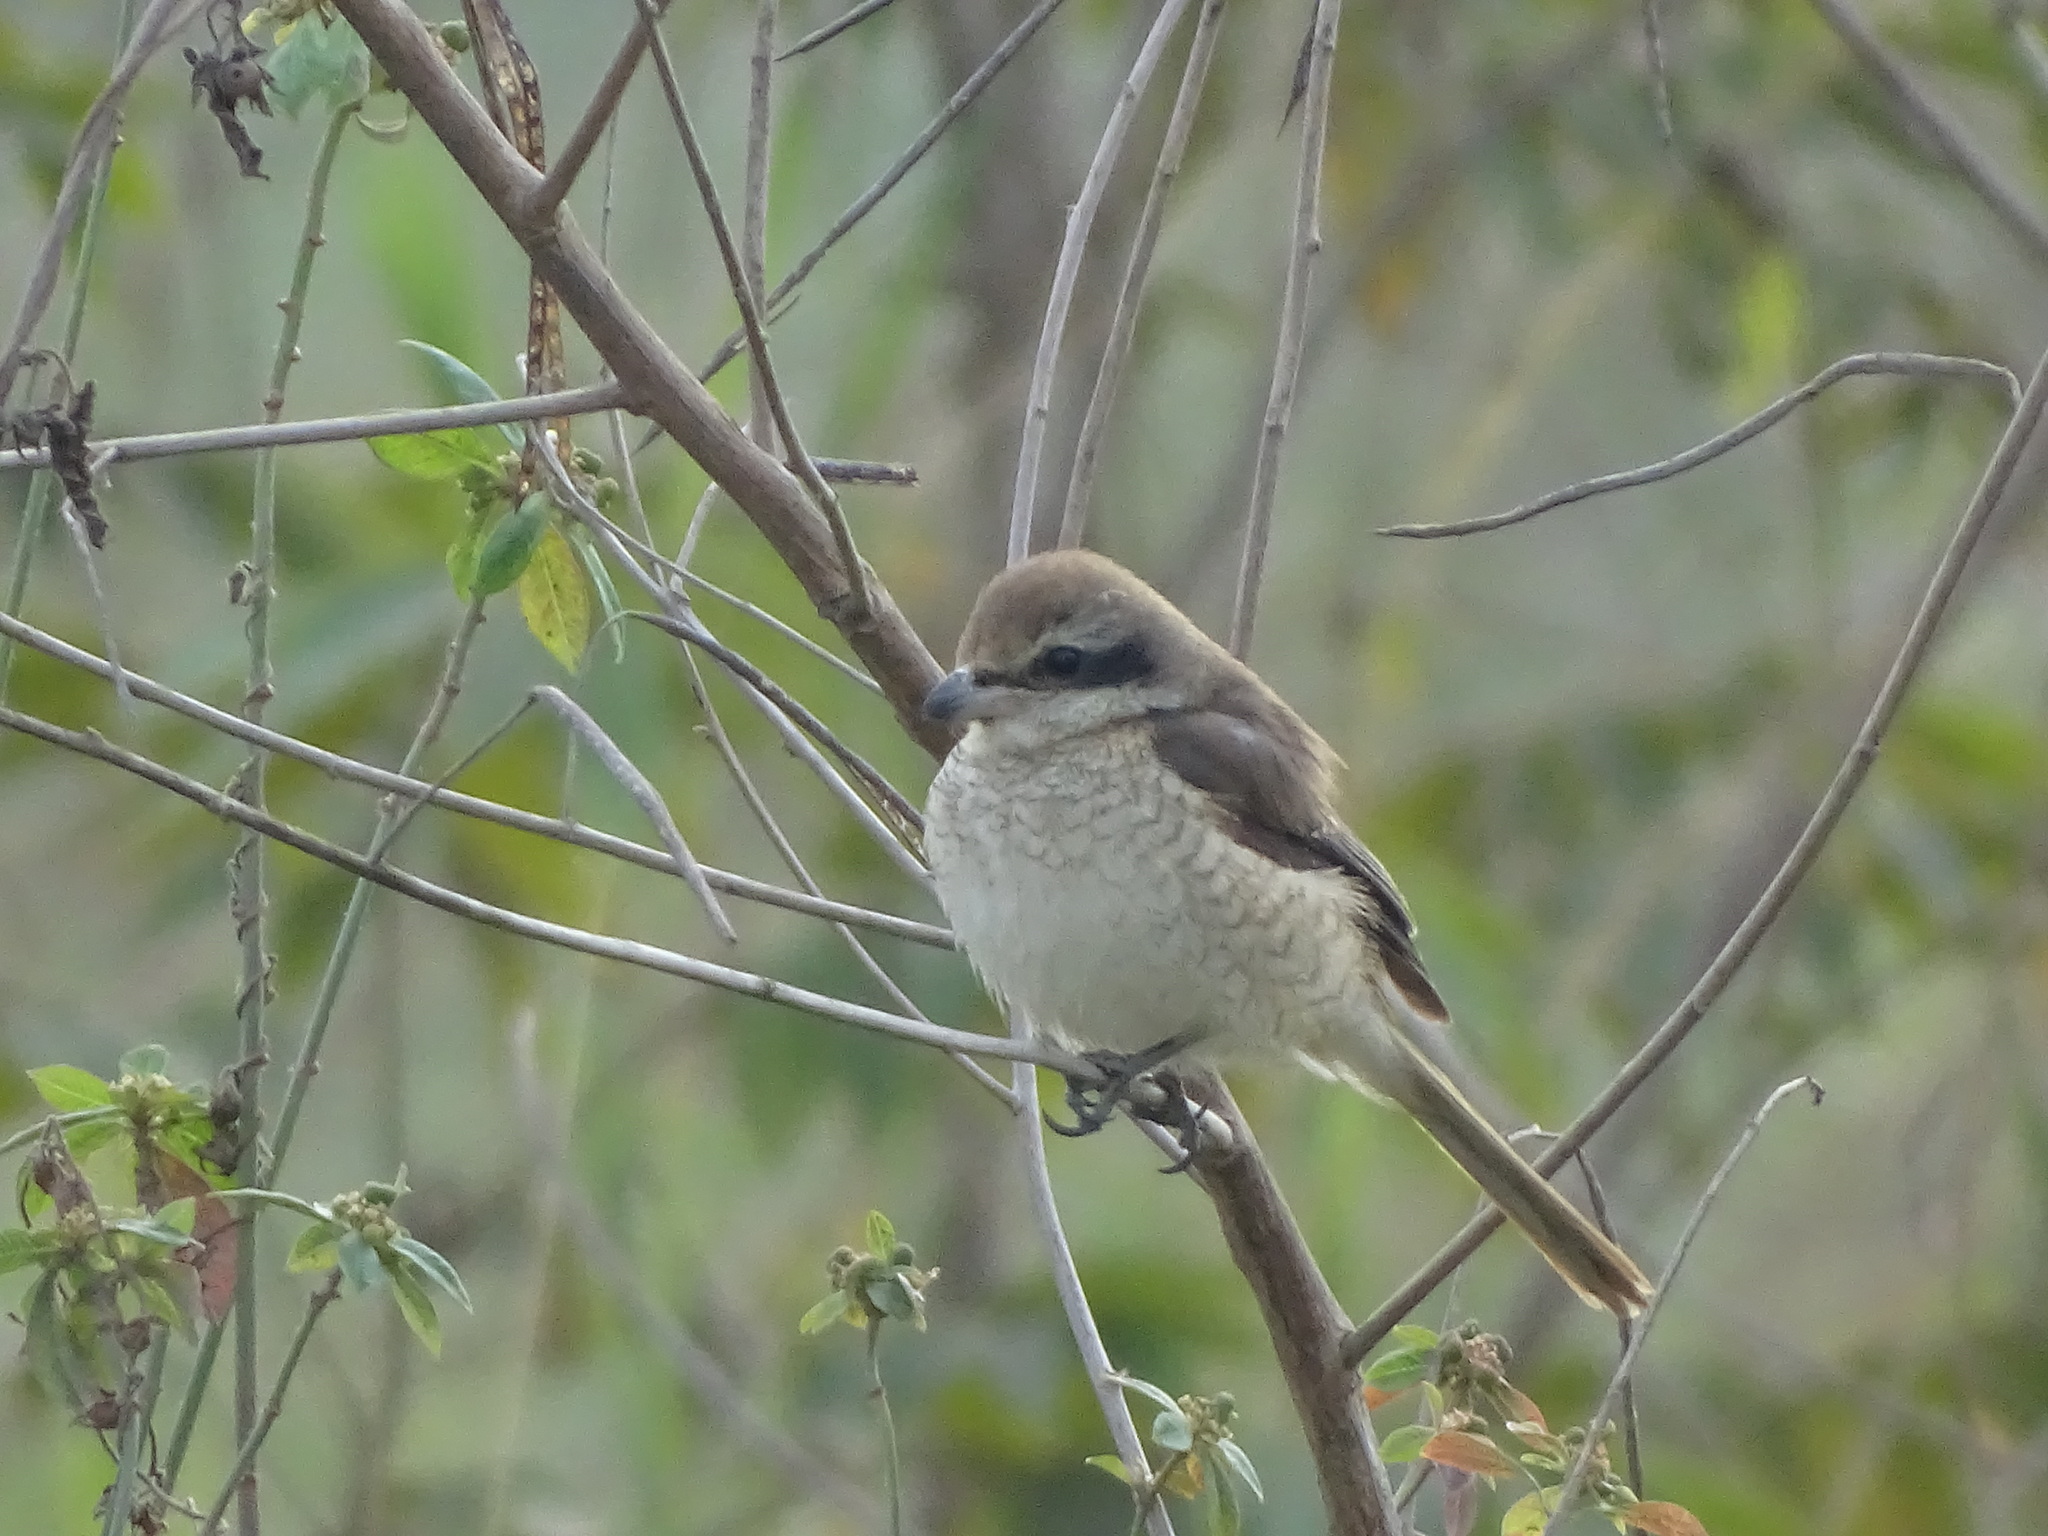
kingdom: Animalia
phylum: Chordata
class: Aves
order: Passeriformes
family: Laniidae
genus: Lanius
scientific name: Lanius cristatus
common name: Brown shrike
